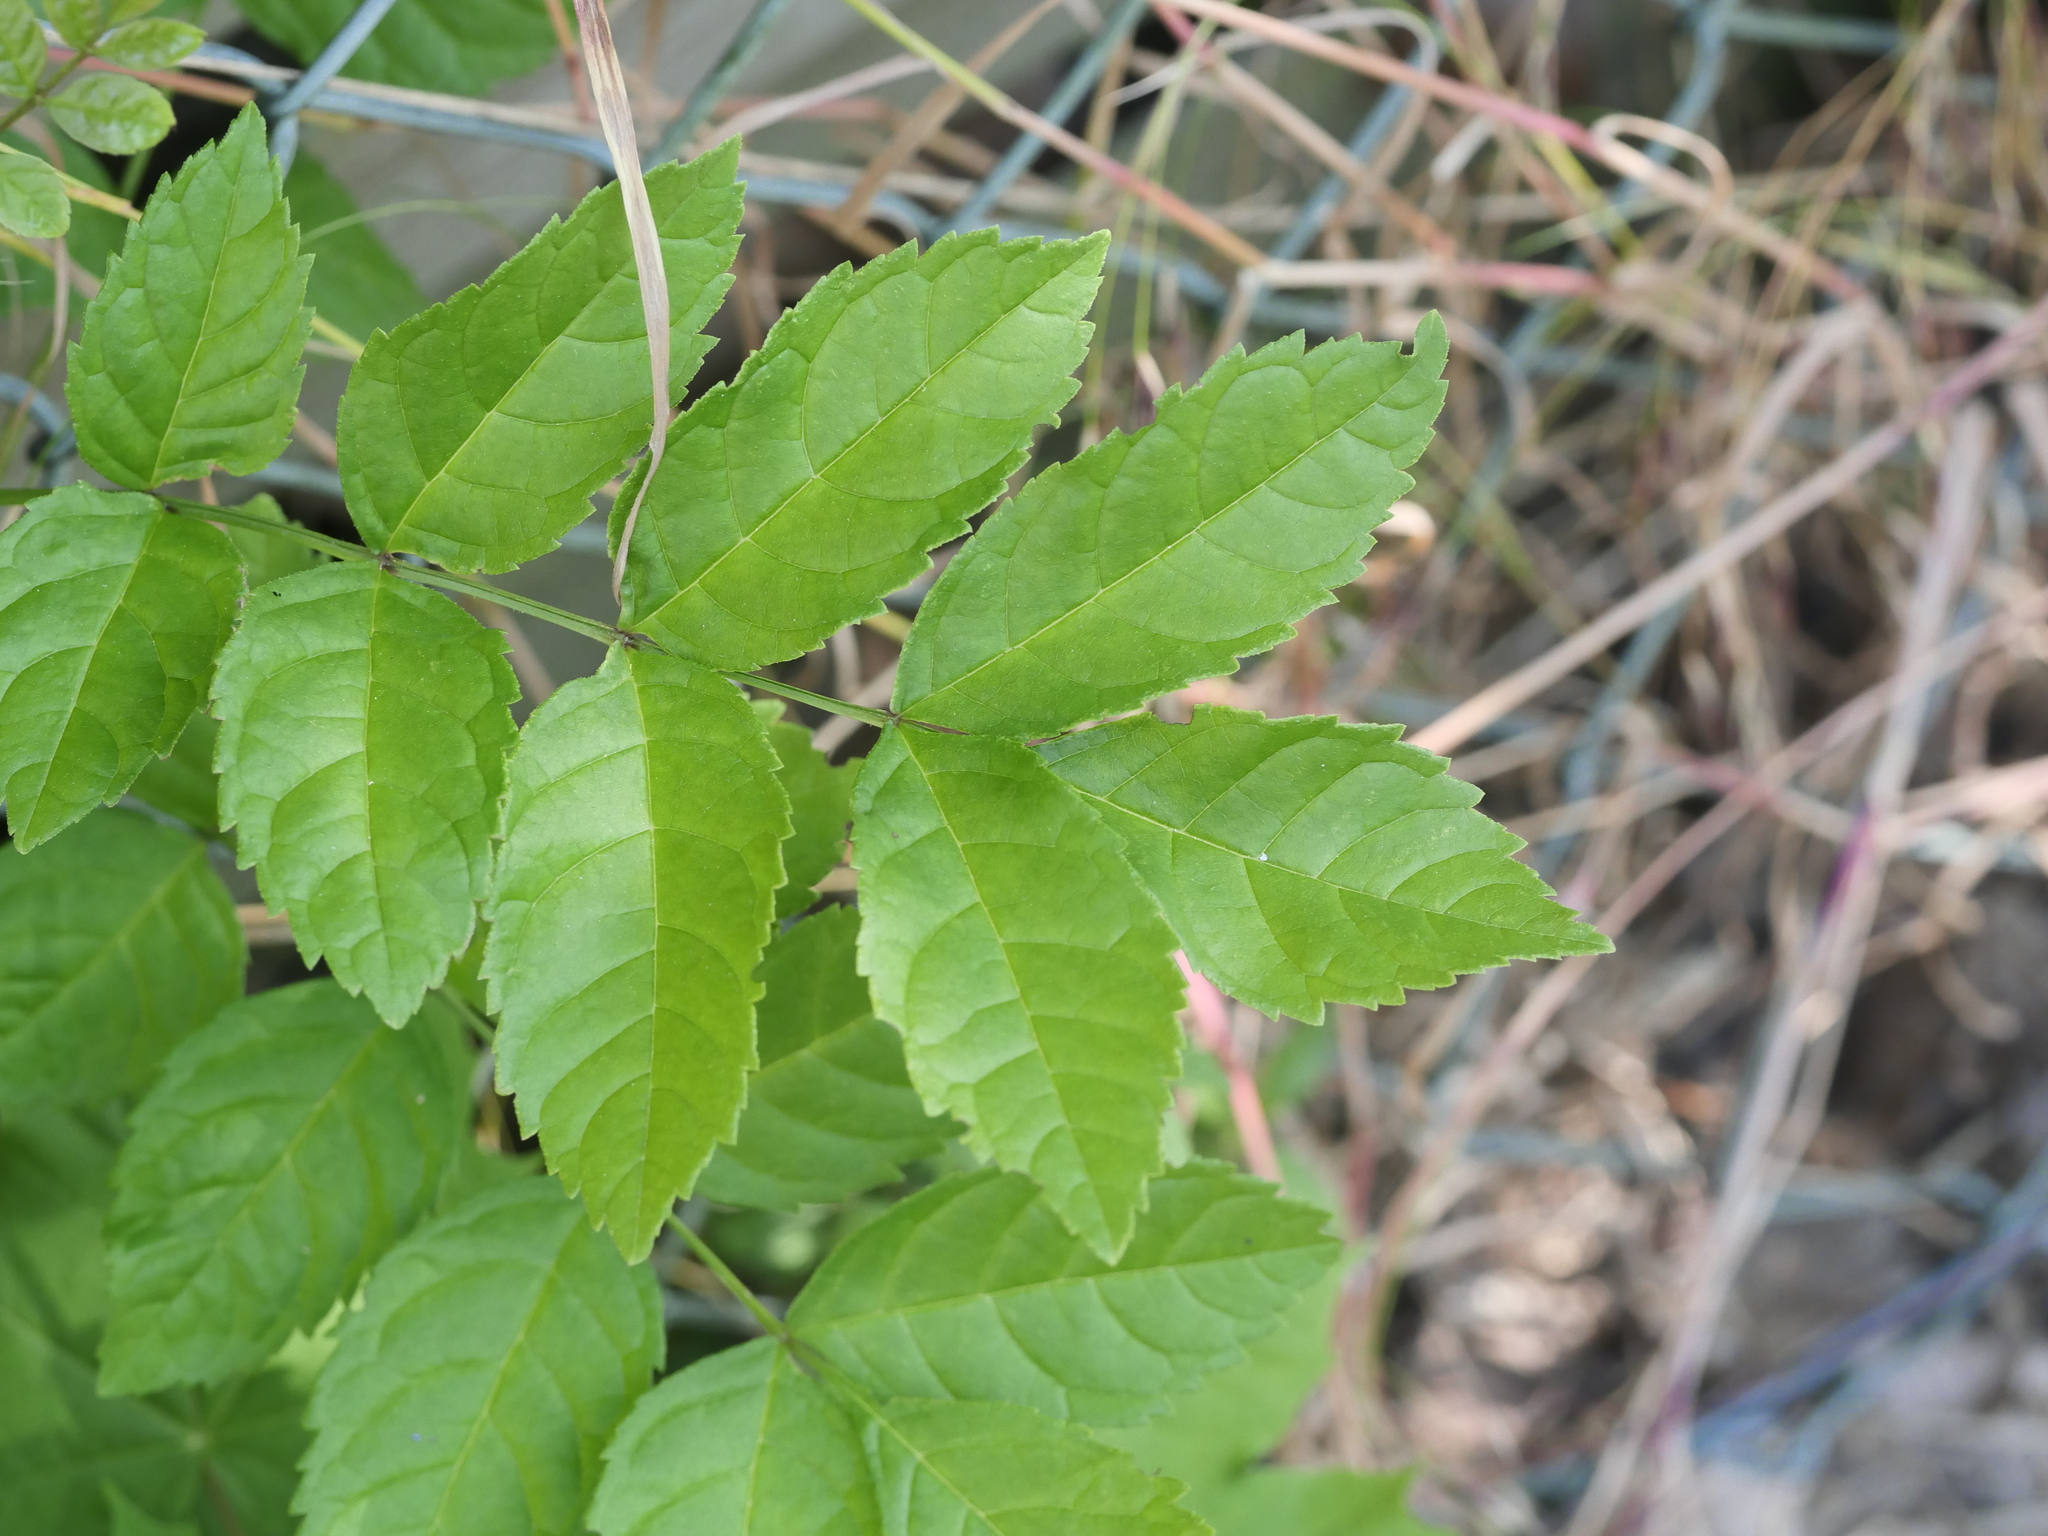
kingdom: Plantae
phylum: Tracheophyta
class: Magnoliopsida
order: Lamiales
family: Oleaceae
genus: Fraxinus
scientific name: Fraxinus excelsior
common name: European ash
